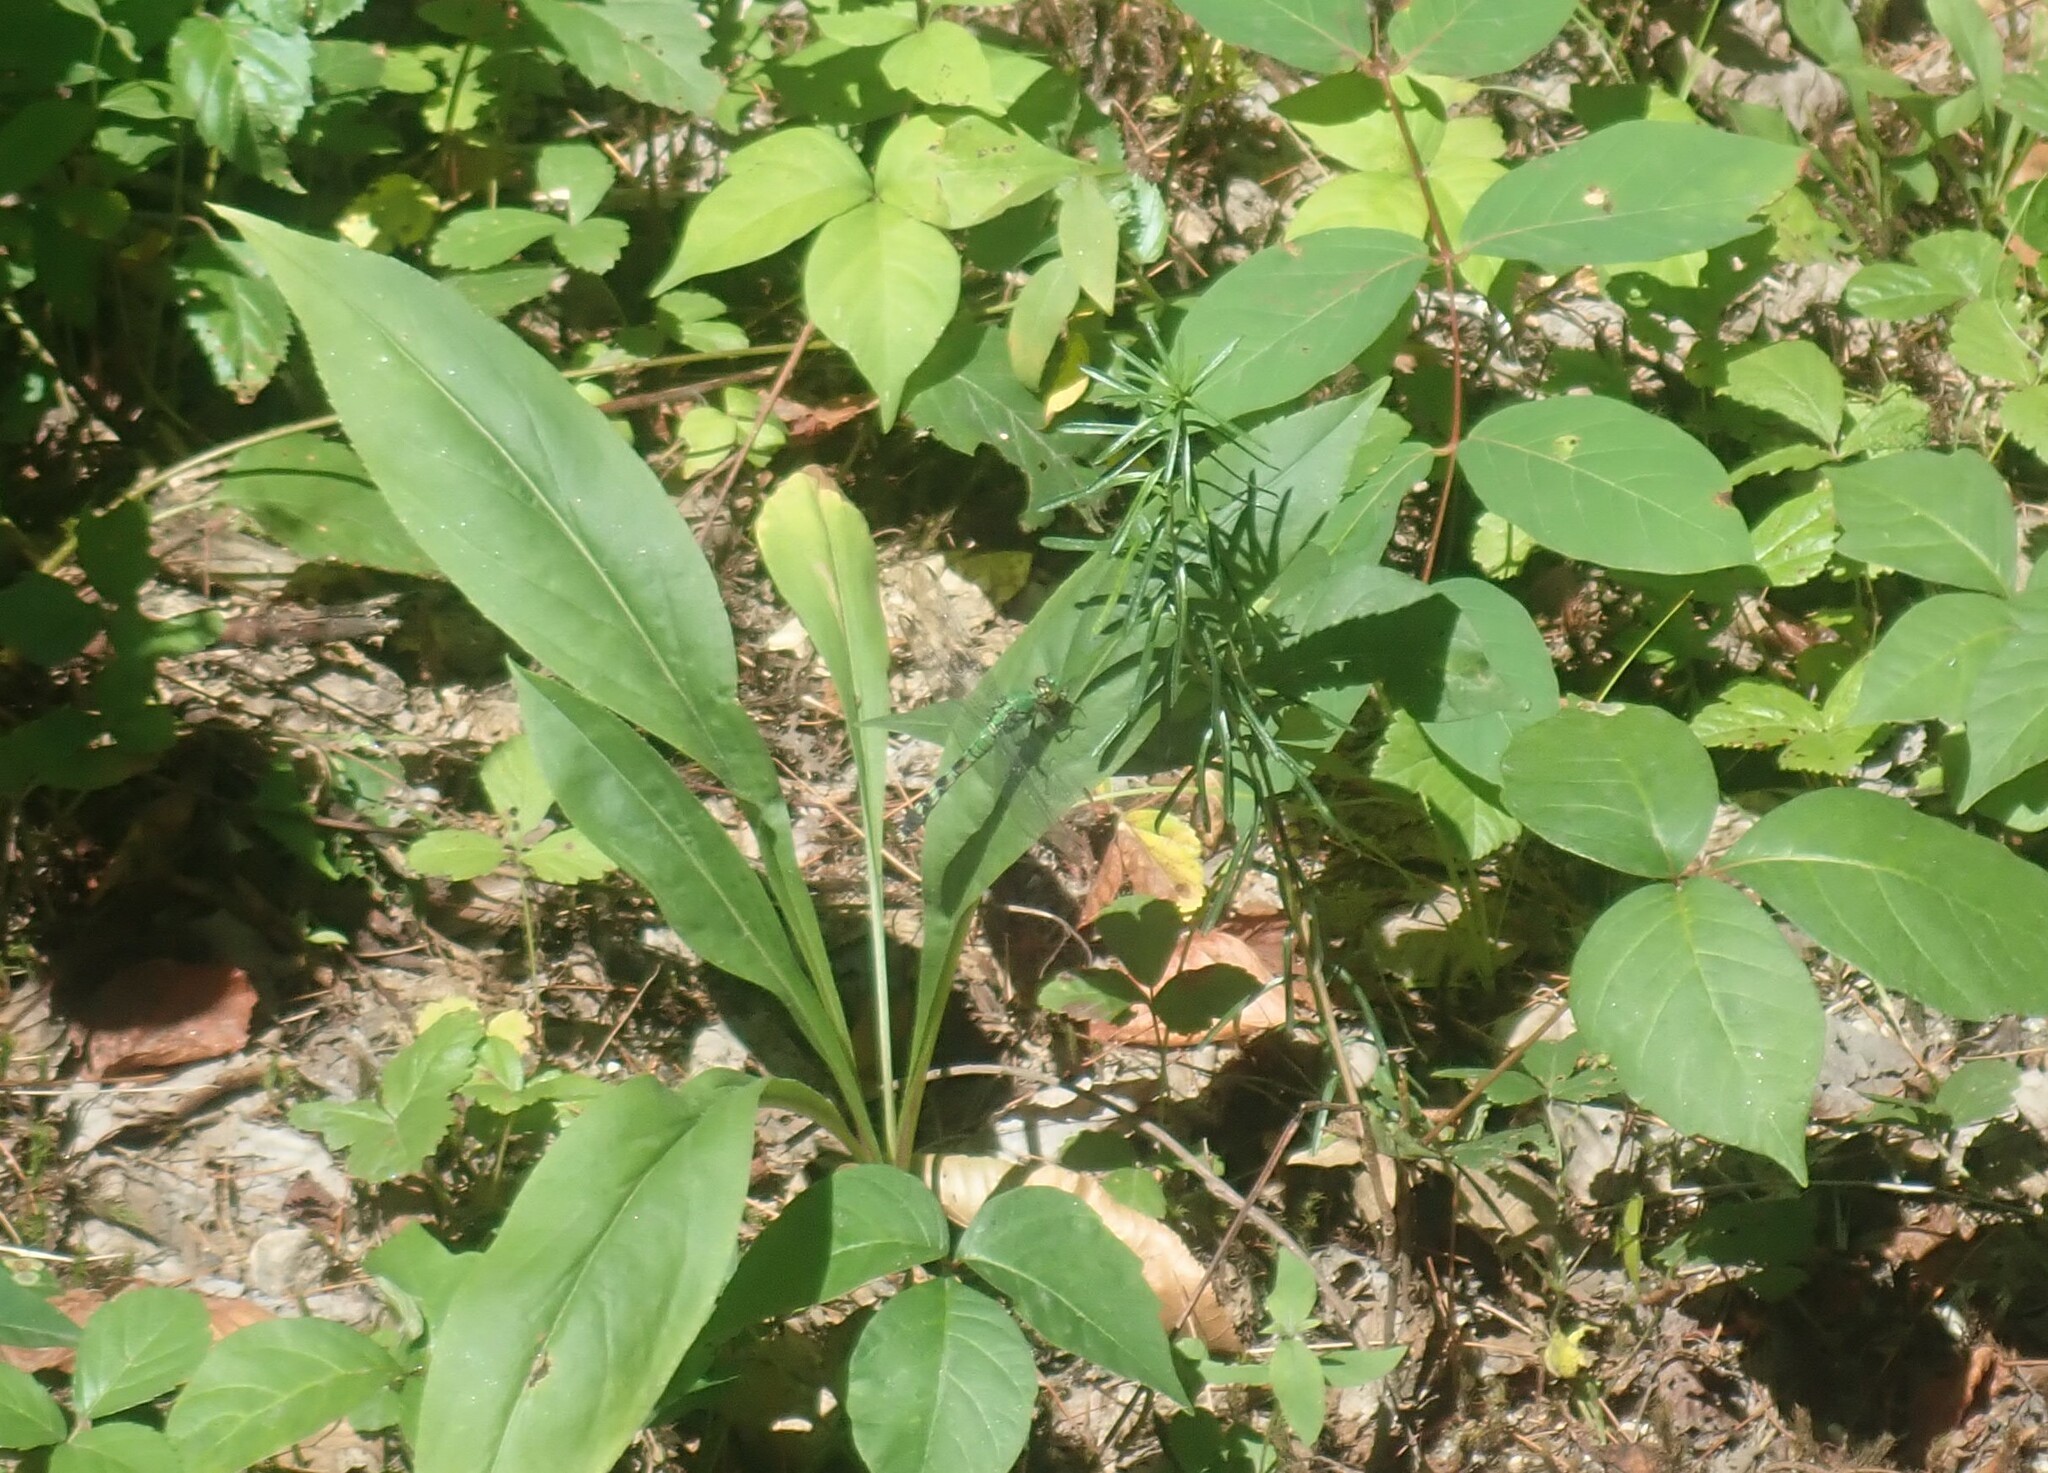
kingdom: Animalia
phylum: Arthropoda
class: Insecta
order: Odonata
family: Libellulidae
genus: Erythemis
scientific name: Erythemis simplicicollis
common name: Eastern pondhawk
